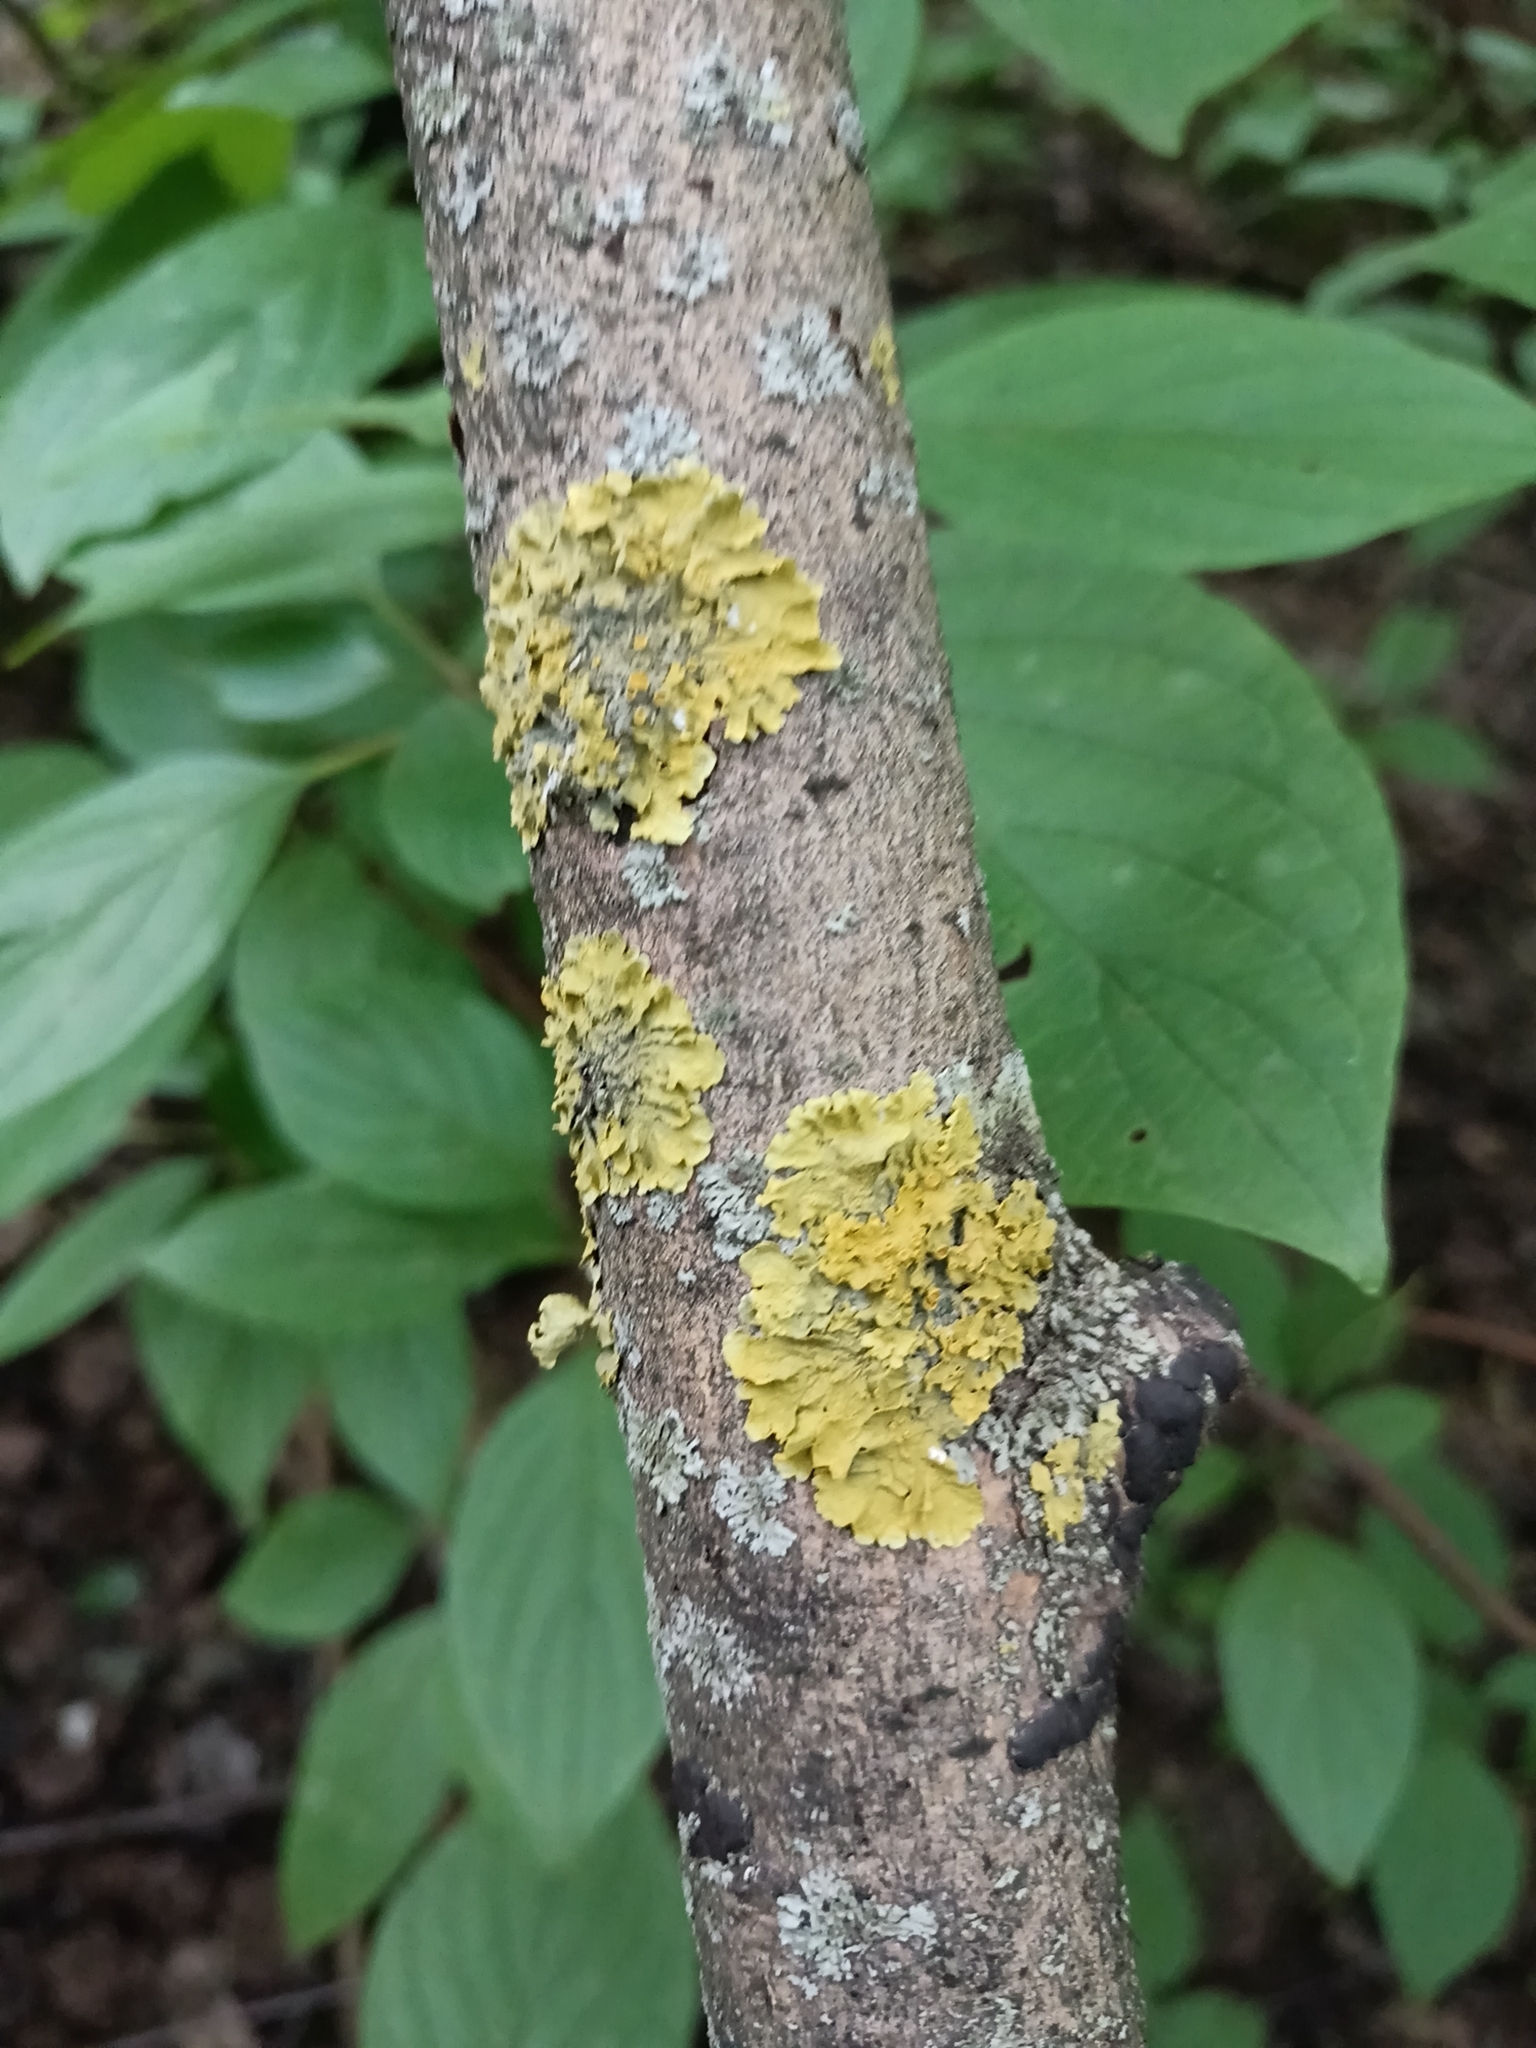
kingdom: Fungi
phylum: Ascomycota
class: Lecanoromycetes
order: Teloschistales
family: Teloschistaceae
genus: Xanthoria
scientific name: Xanthoria parietina
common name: Common orange lichen
